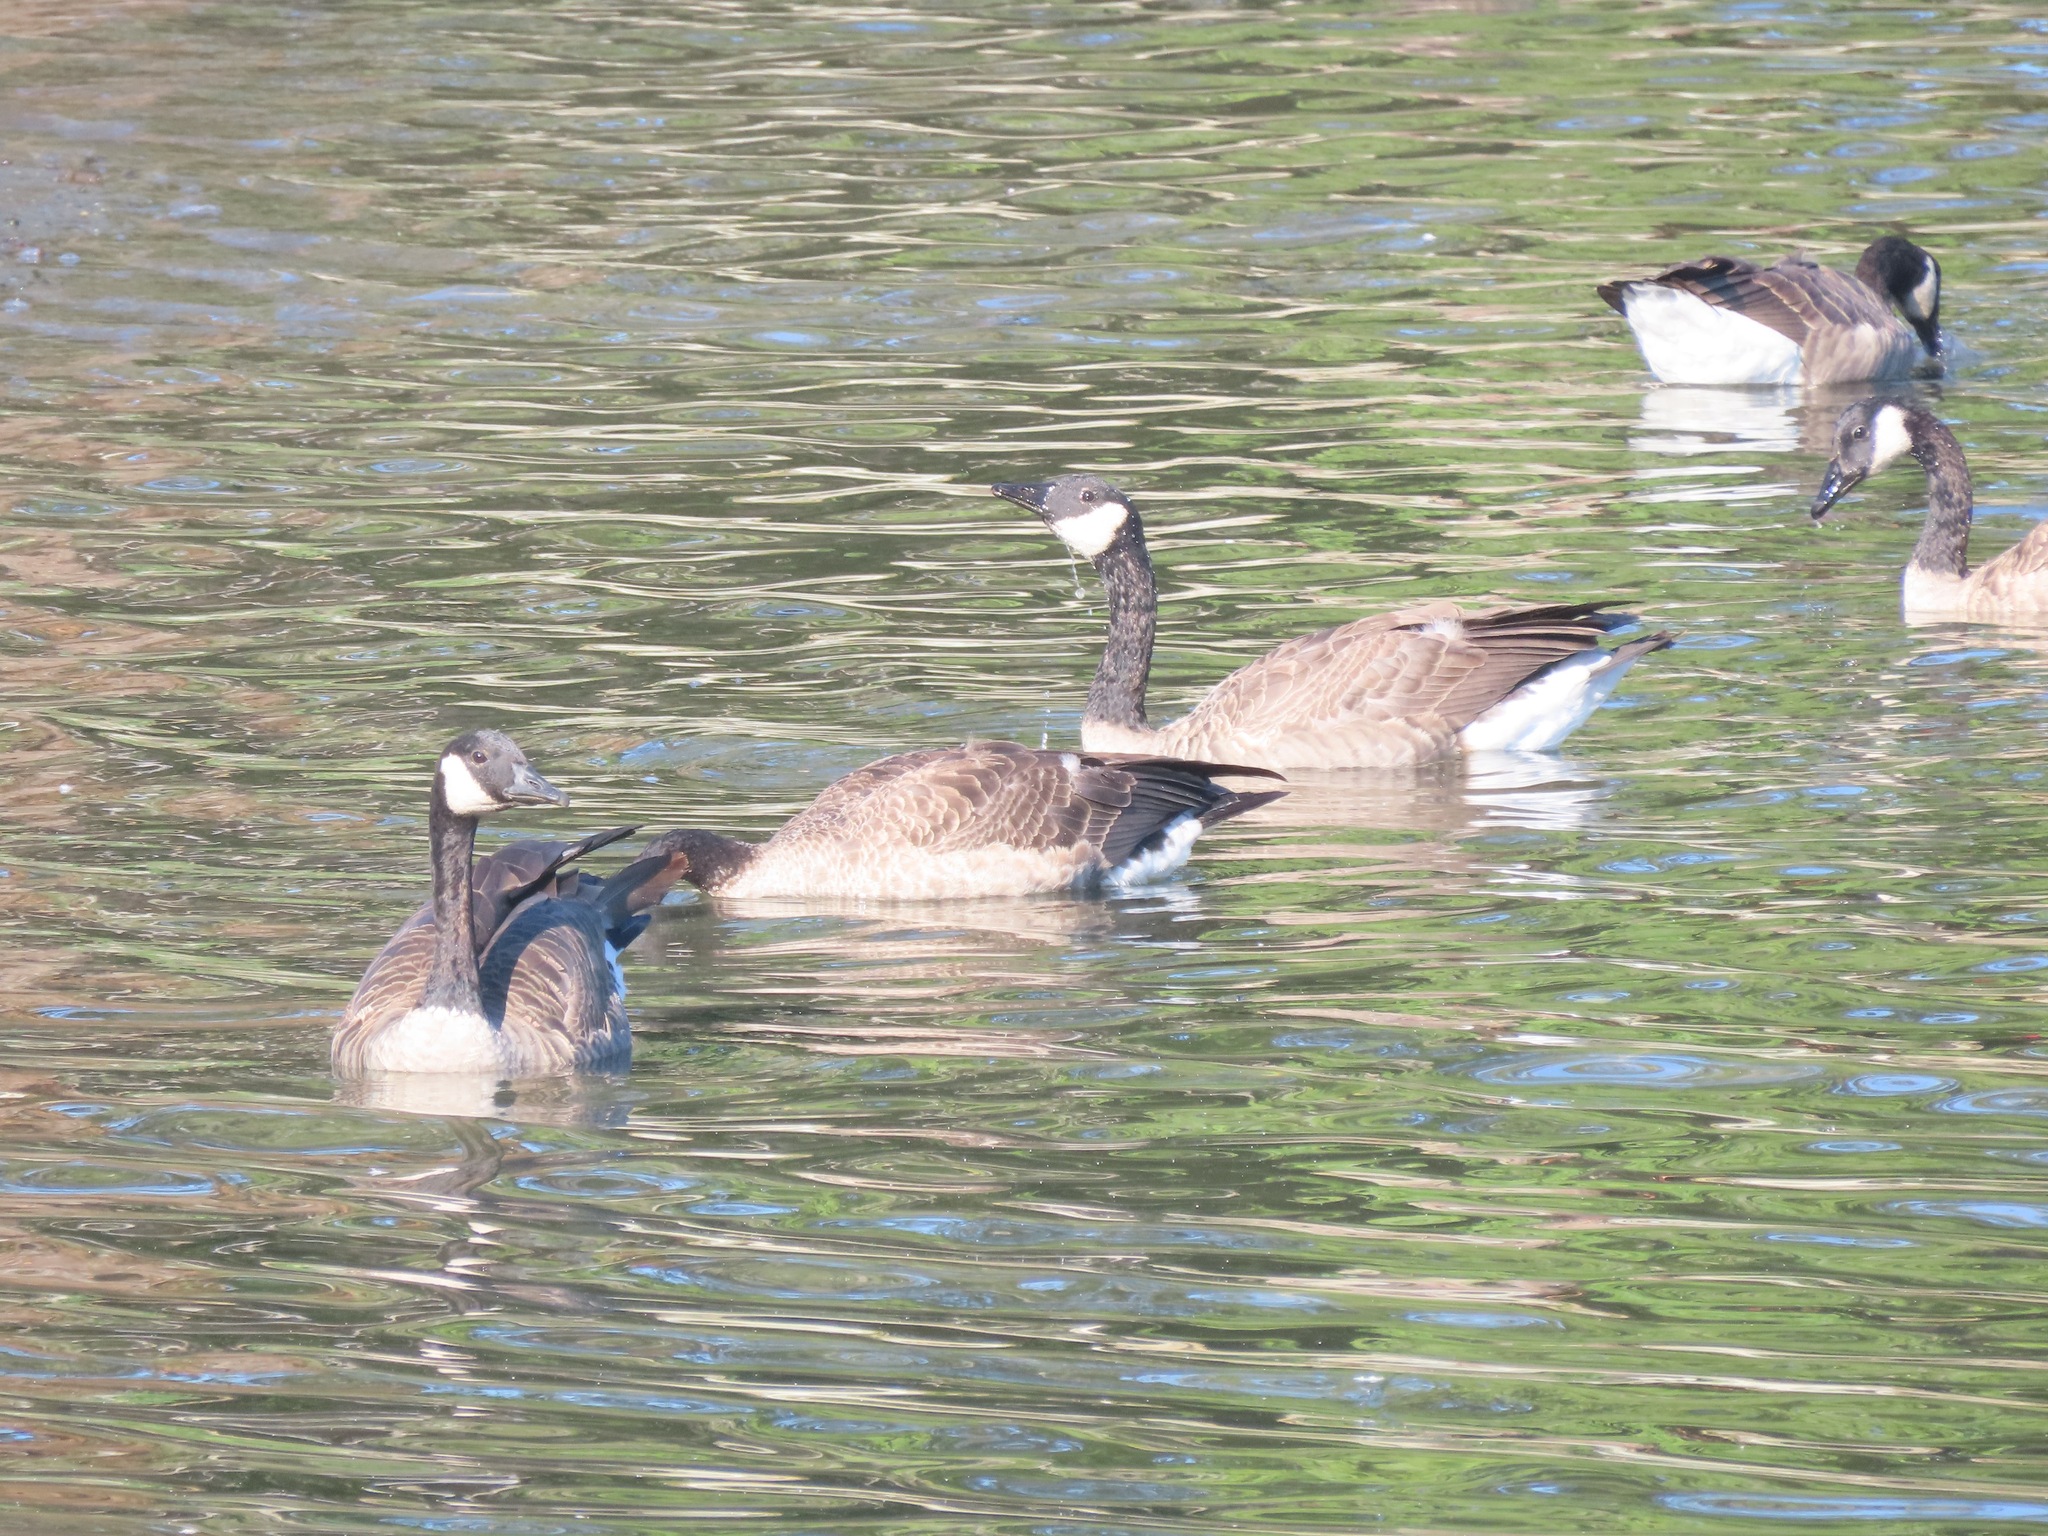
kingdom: Animalia
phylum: Chordata
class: Aves
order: Anseriformes
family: Anatidae
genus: Branta
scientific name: Branta canadensis
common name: Canada goose
